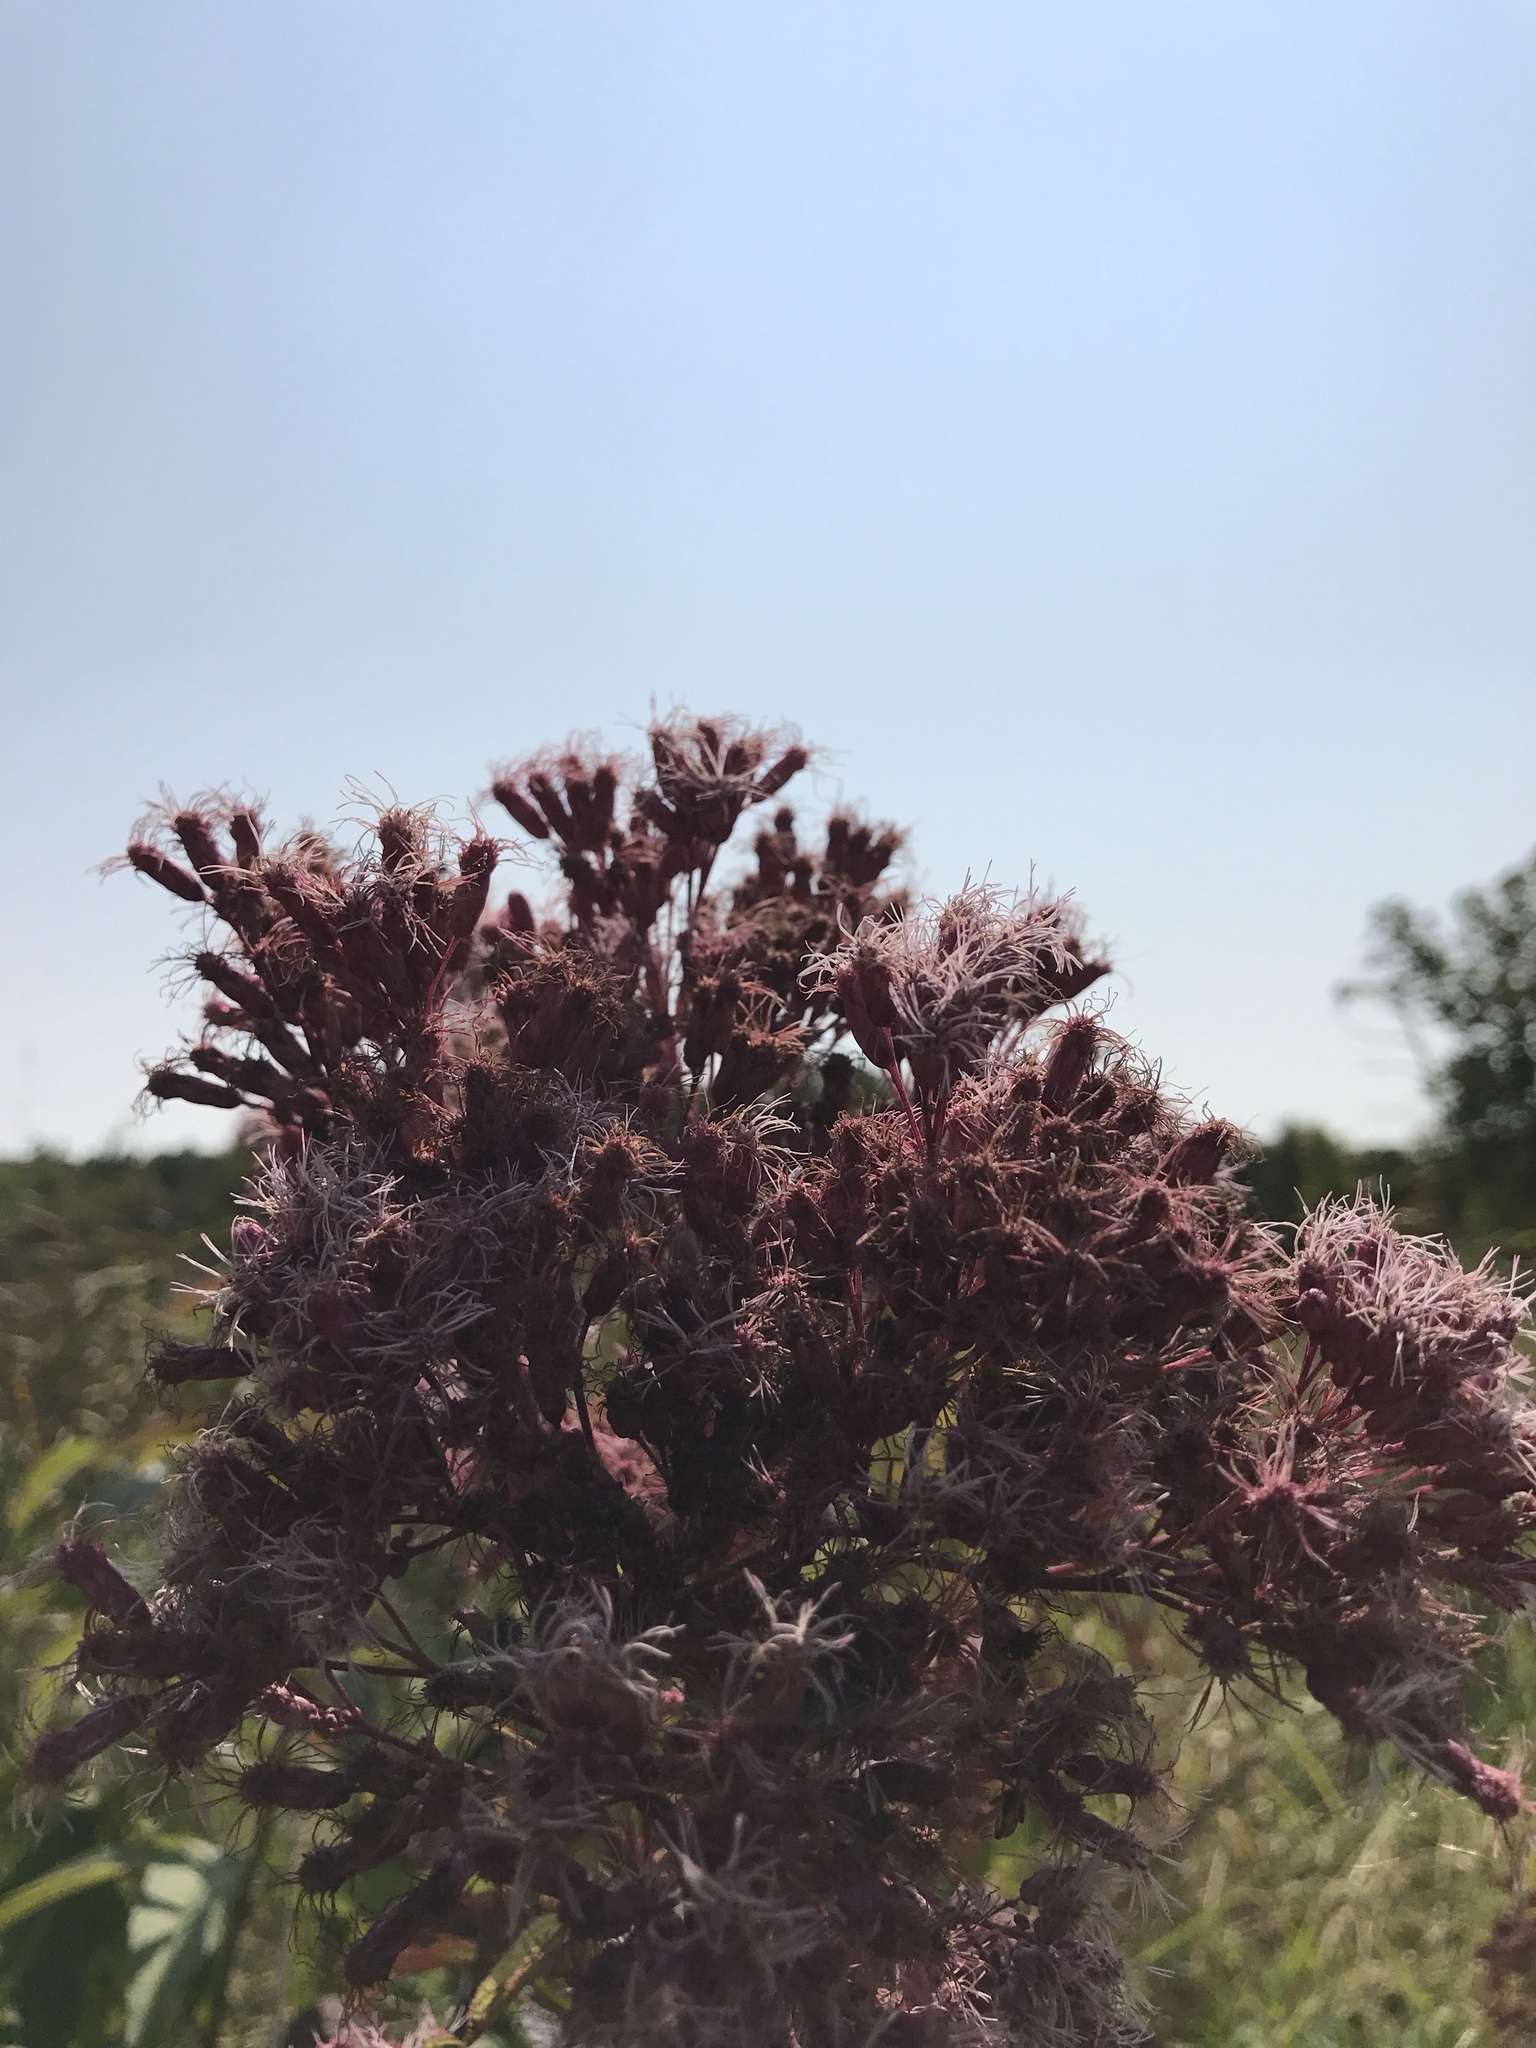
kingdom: Plantae
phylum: Tracheophyta
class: Magnoliopsida
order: Asterales
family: Asteraceae
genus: Eutrochium
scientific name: Eutrochium maculatum
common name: Spotted joe pye weed
